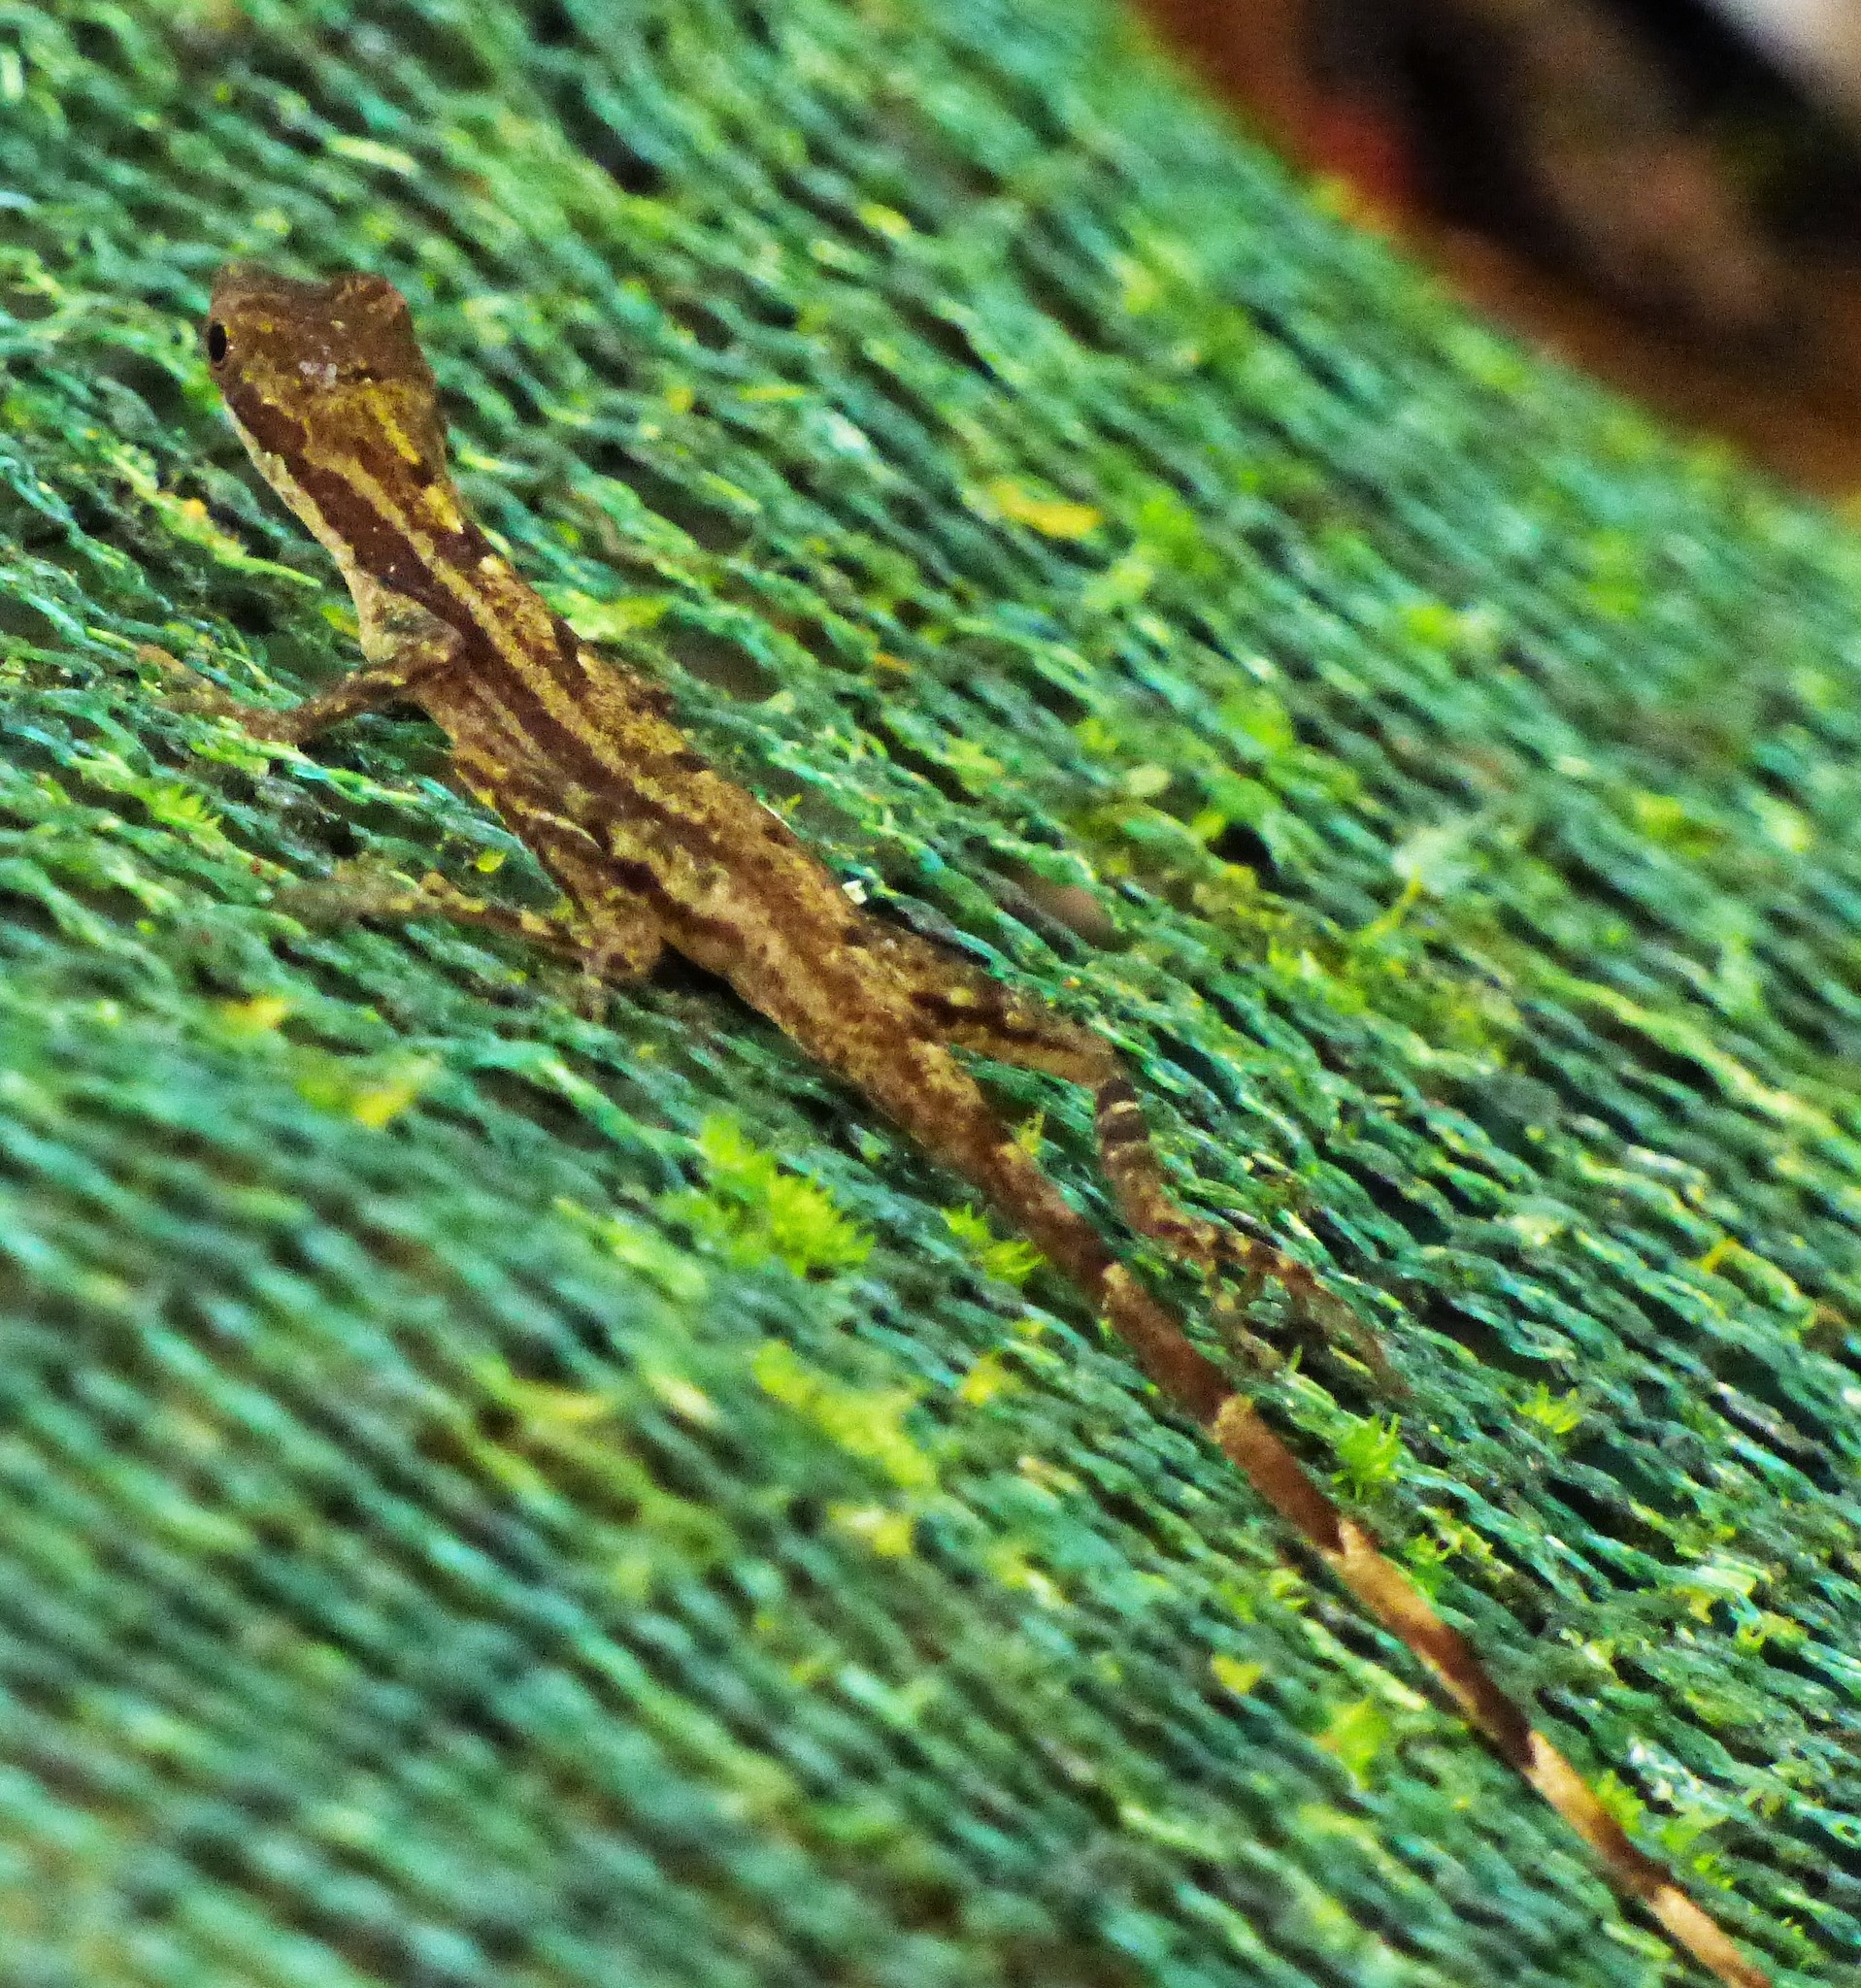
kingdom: Animalia
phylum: Chordata
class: Squamata
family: Dactyloidae
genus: Anolis
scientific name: Anolis limifrons
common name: Border anole
